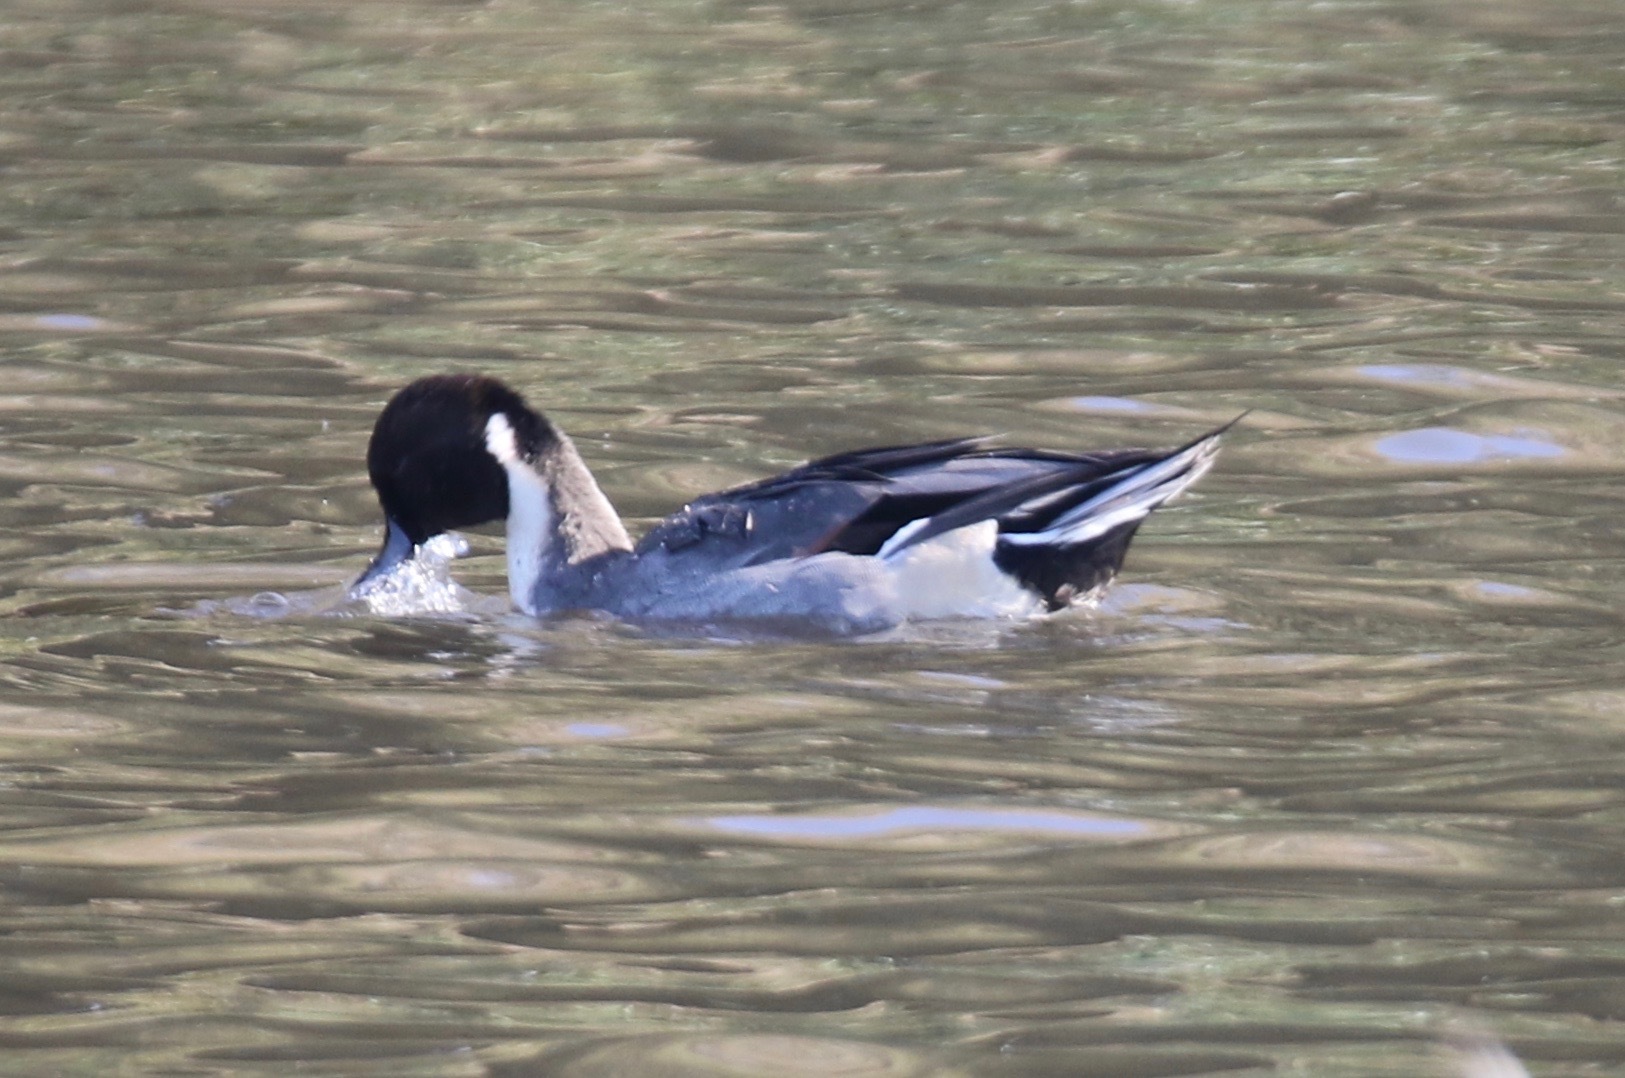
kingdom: Animalia
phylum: Chordata
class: Aves
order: Anseriformes
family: Anatidae
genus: Anas
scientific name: Anas acuta
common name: Northern pintail
